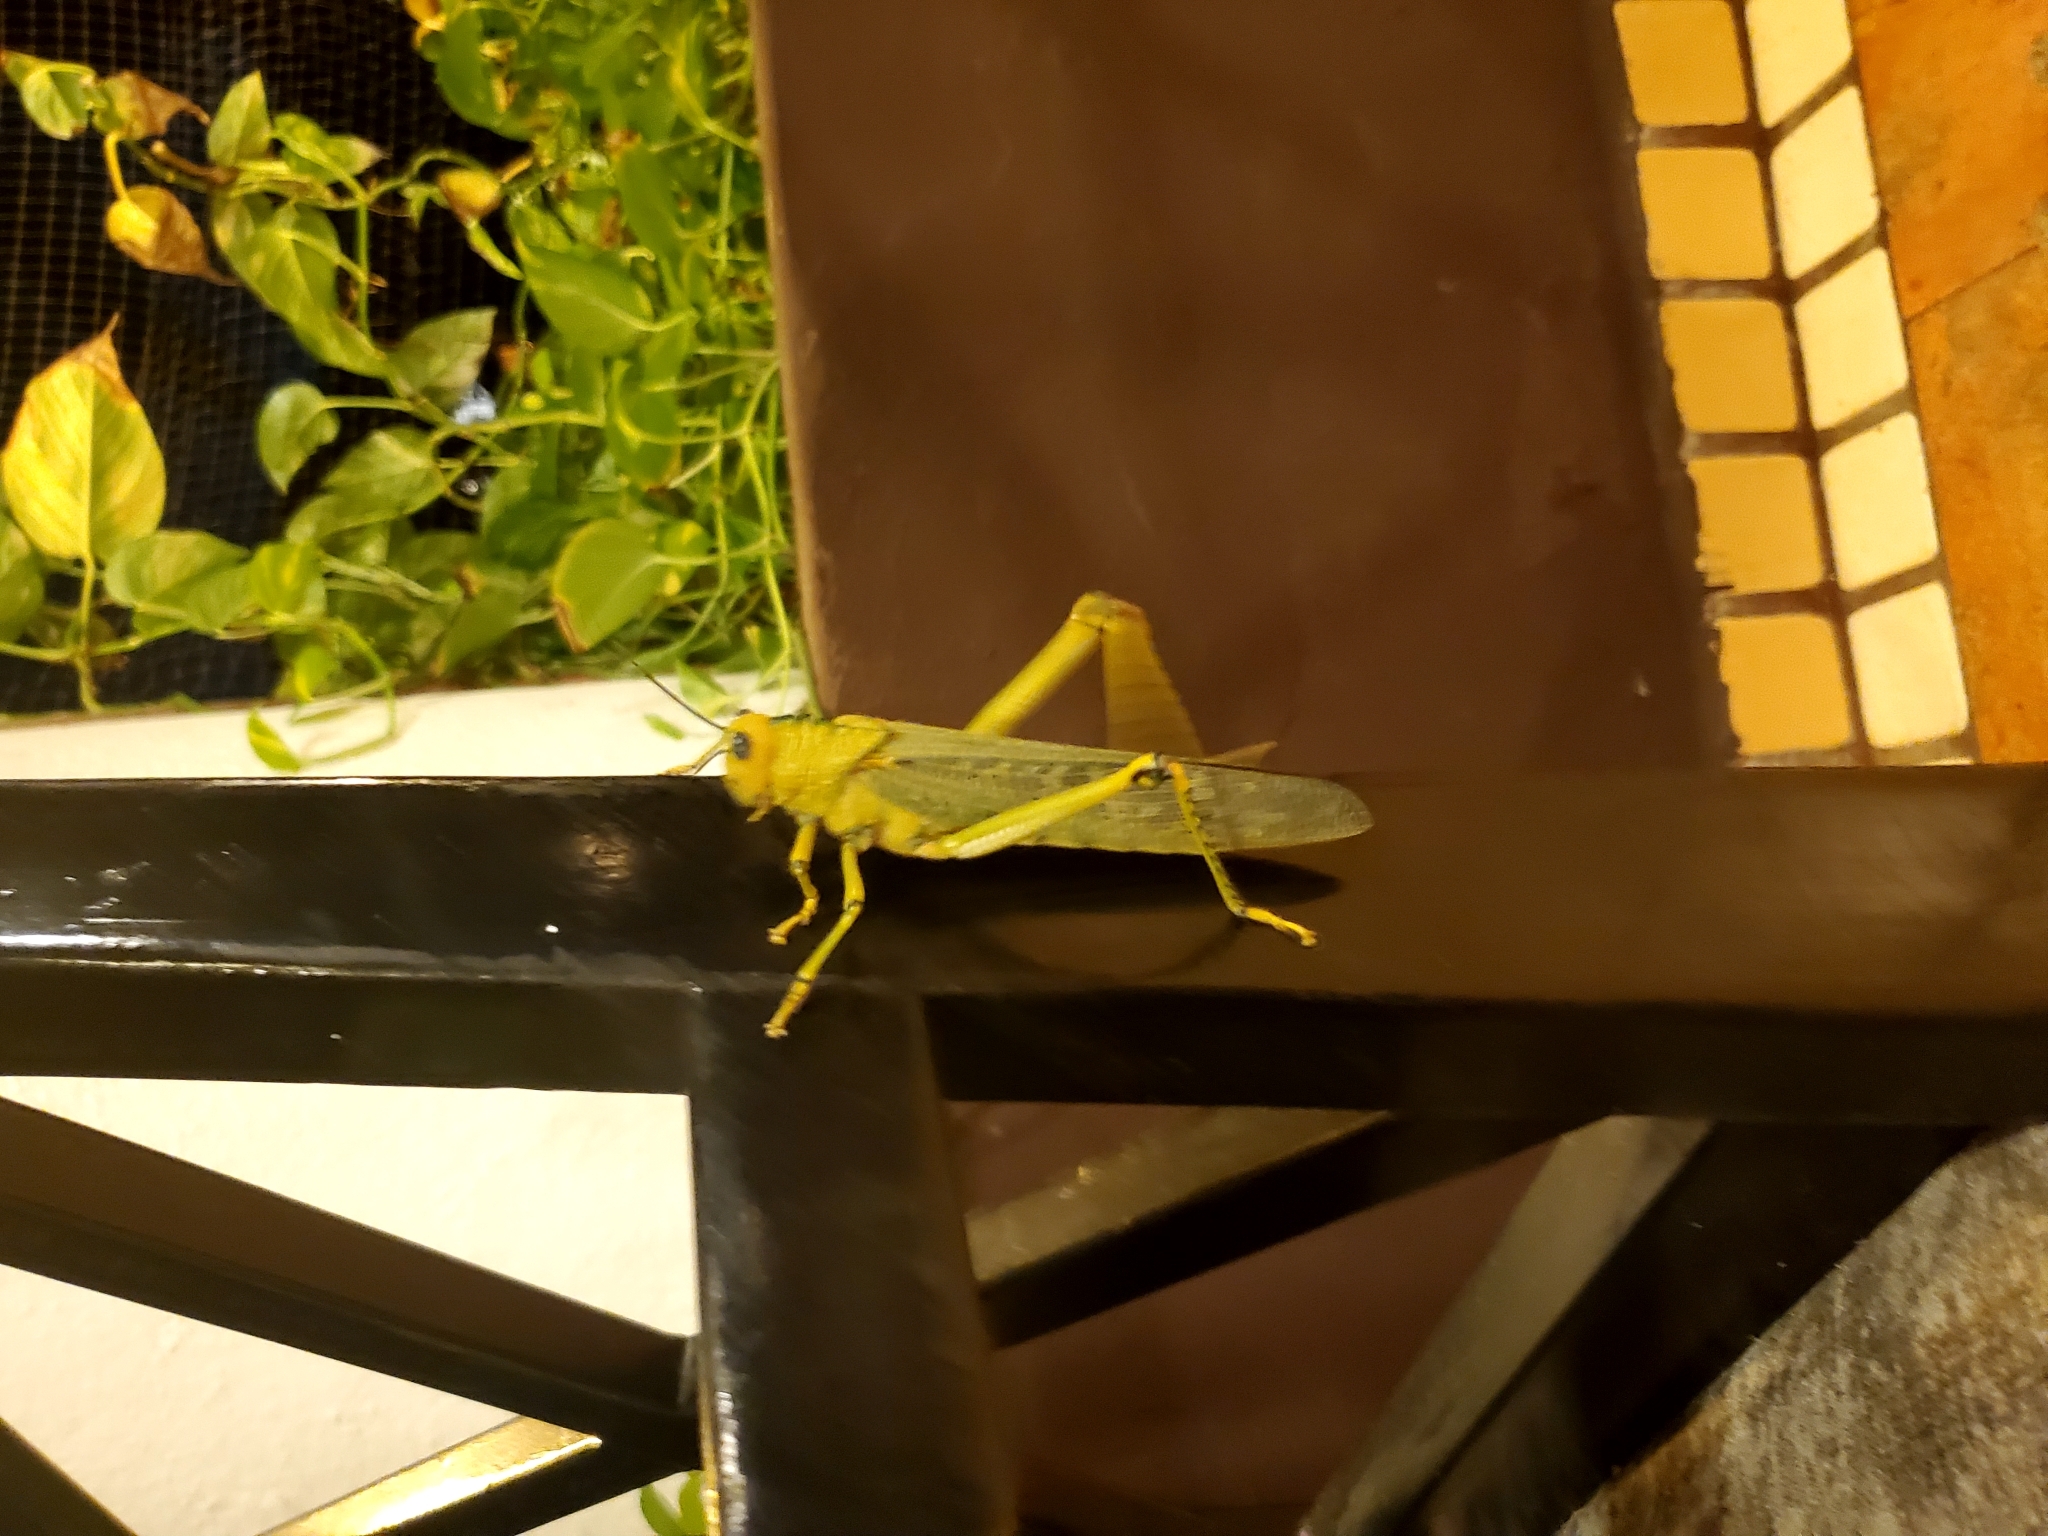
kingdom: Animalia
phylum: Arthropoda
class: Insecta
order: Orthoptera
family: Romaleidae
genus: Tropidacris
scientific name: Tropidacris cristata
